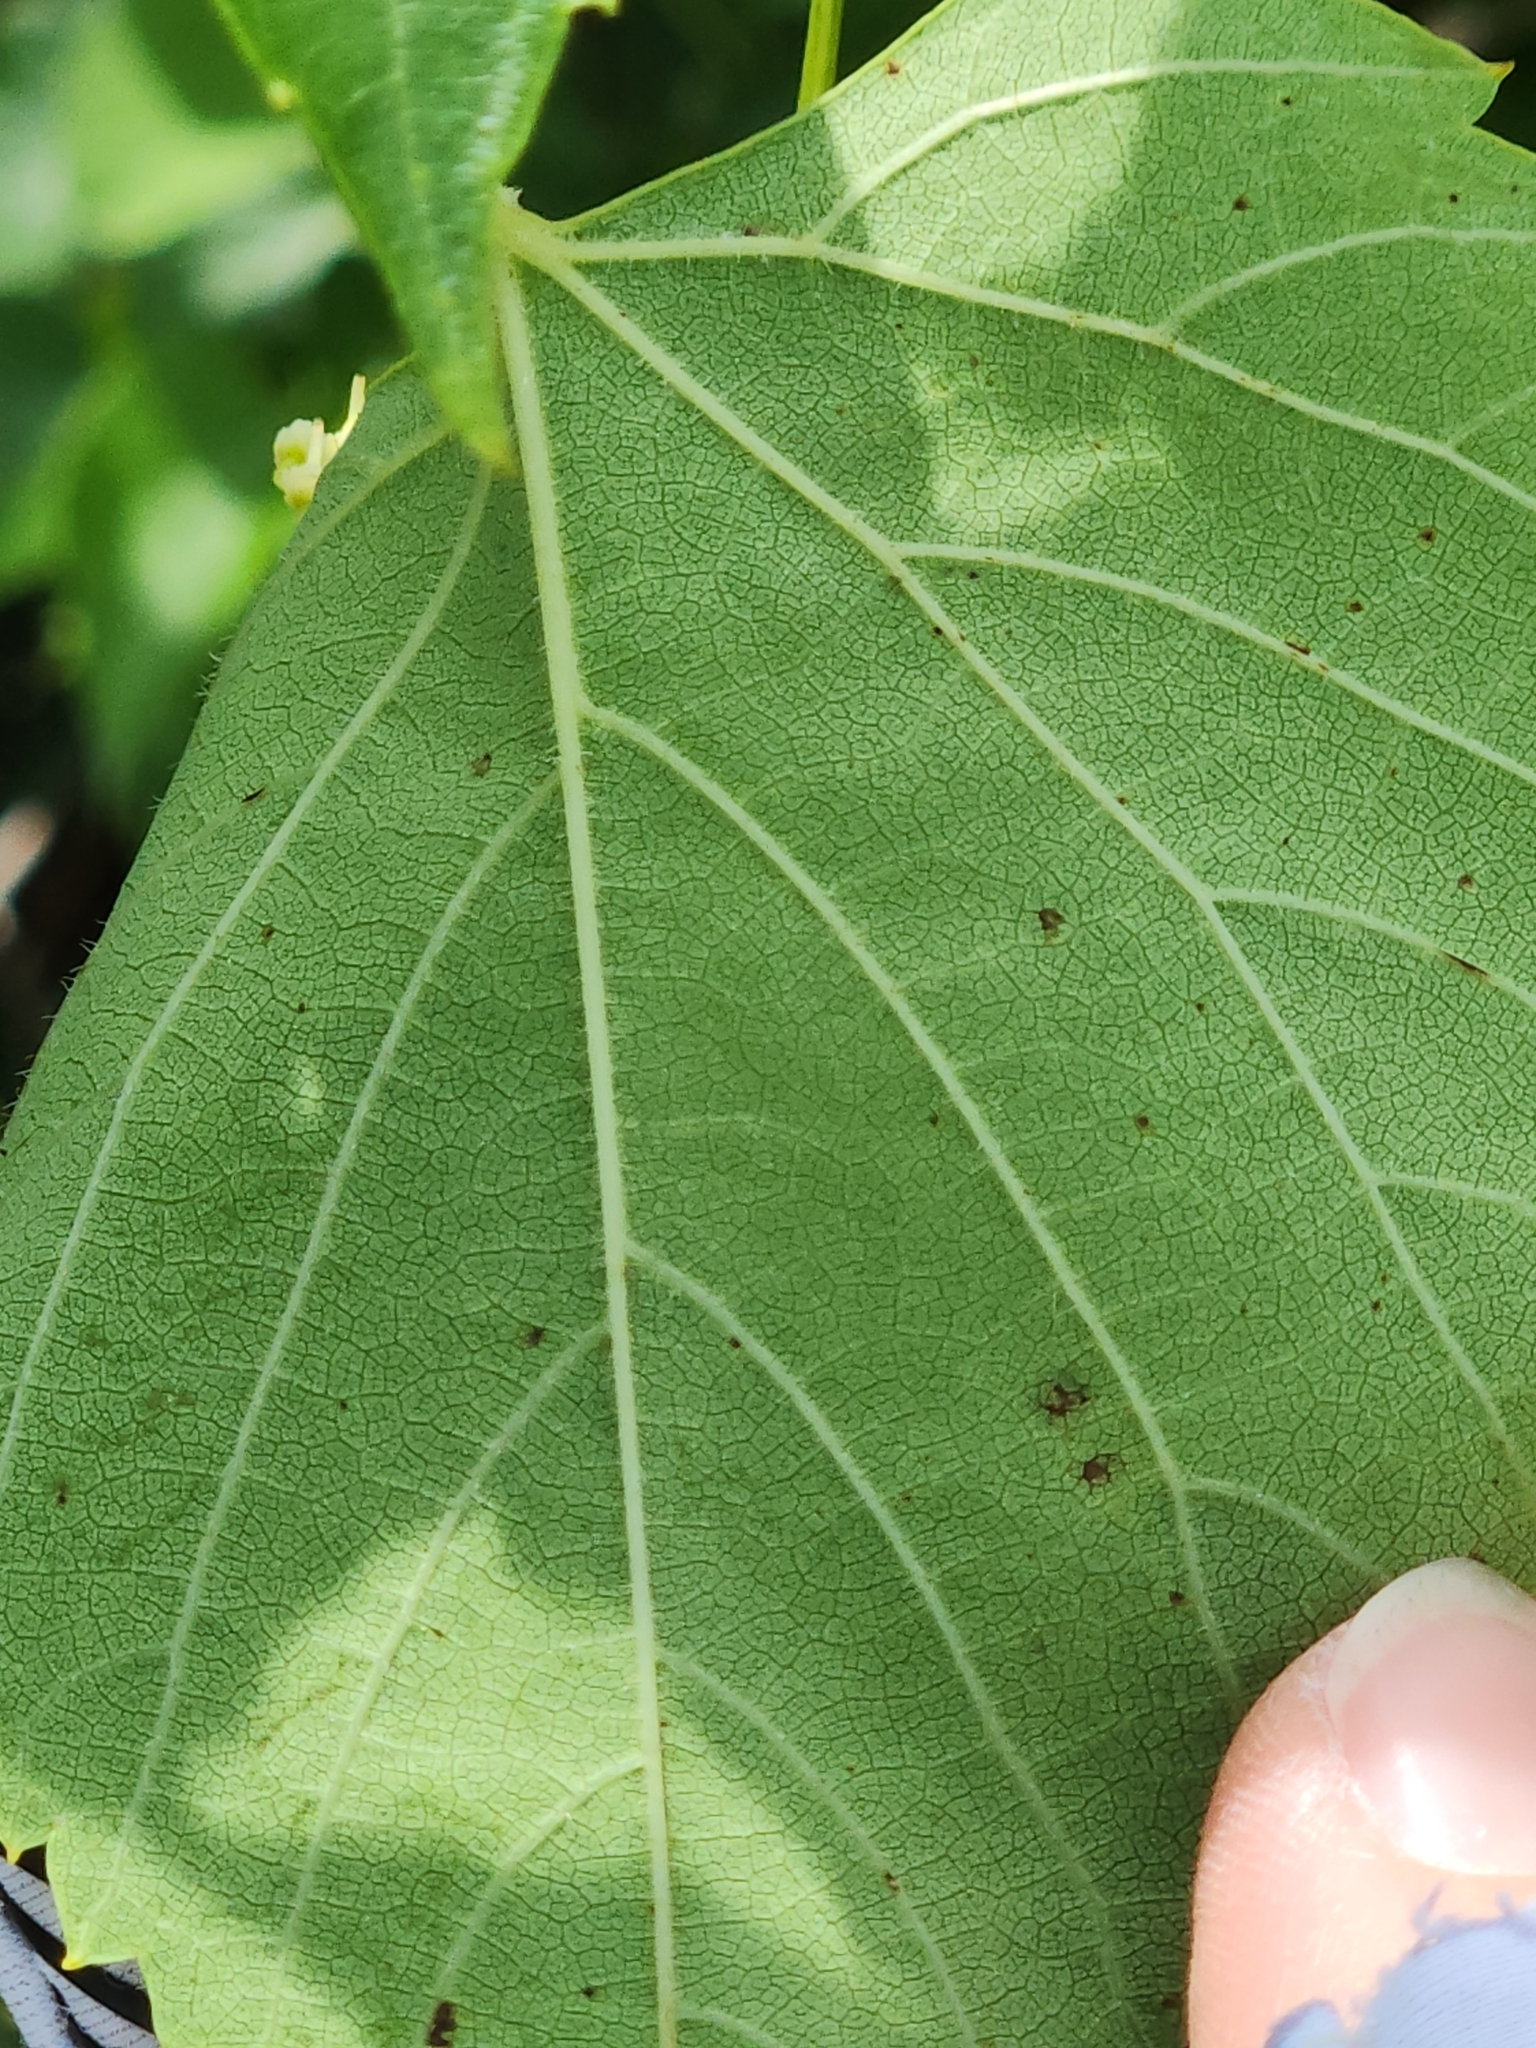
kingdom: Plantae
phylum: Tracheophyta
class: Magnoliopsida
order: Vitales
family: Vitaceae
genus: Ampelopsis
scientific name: Ampelopsis cordata
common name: Heart-leaf ampelopsis
